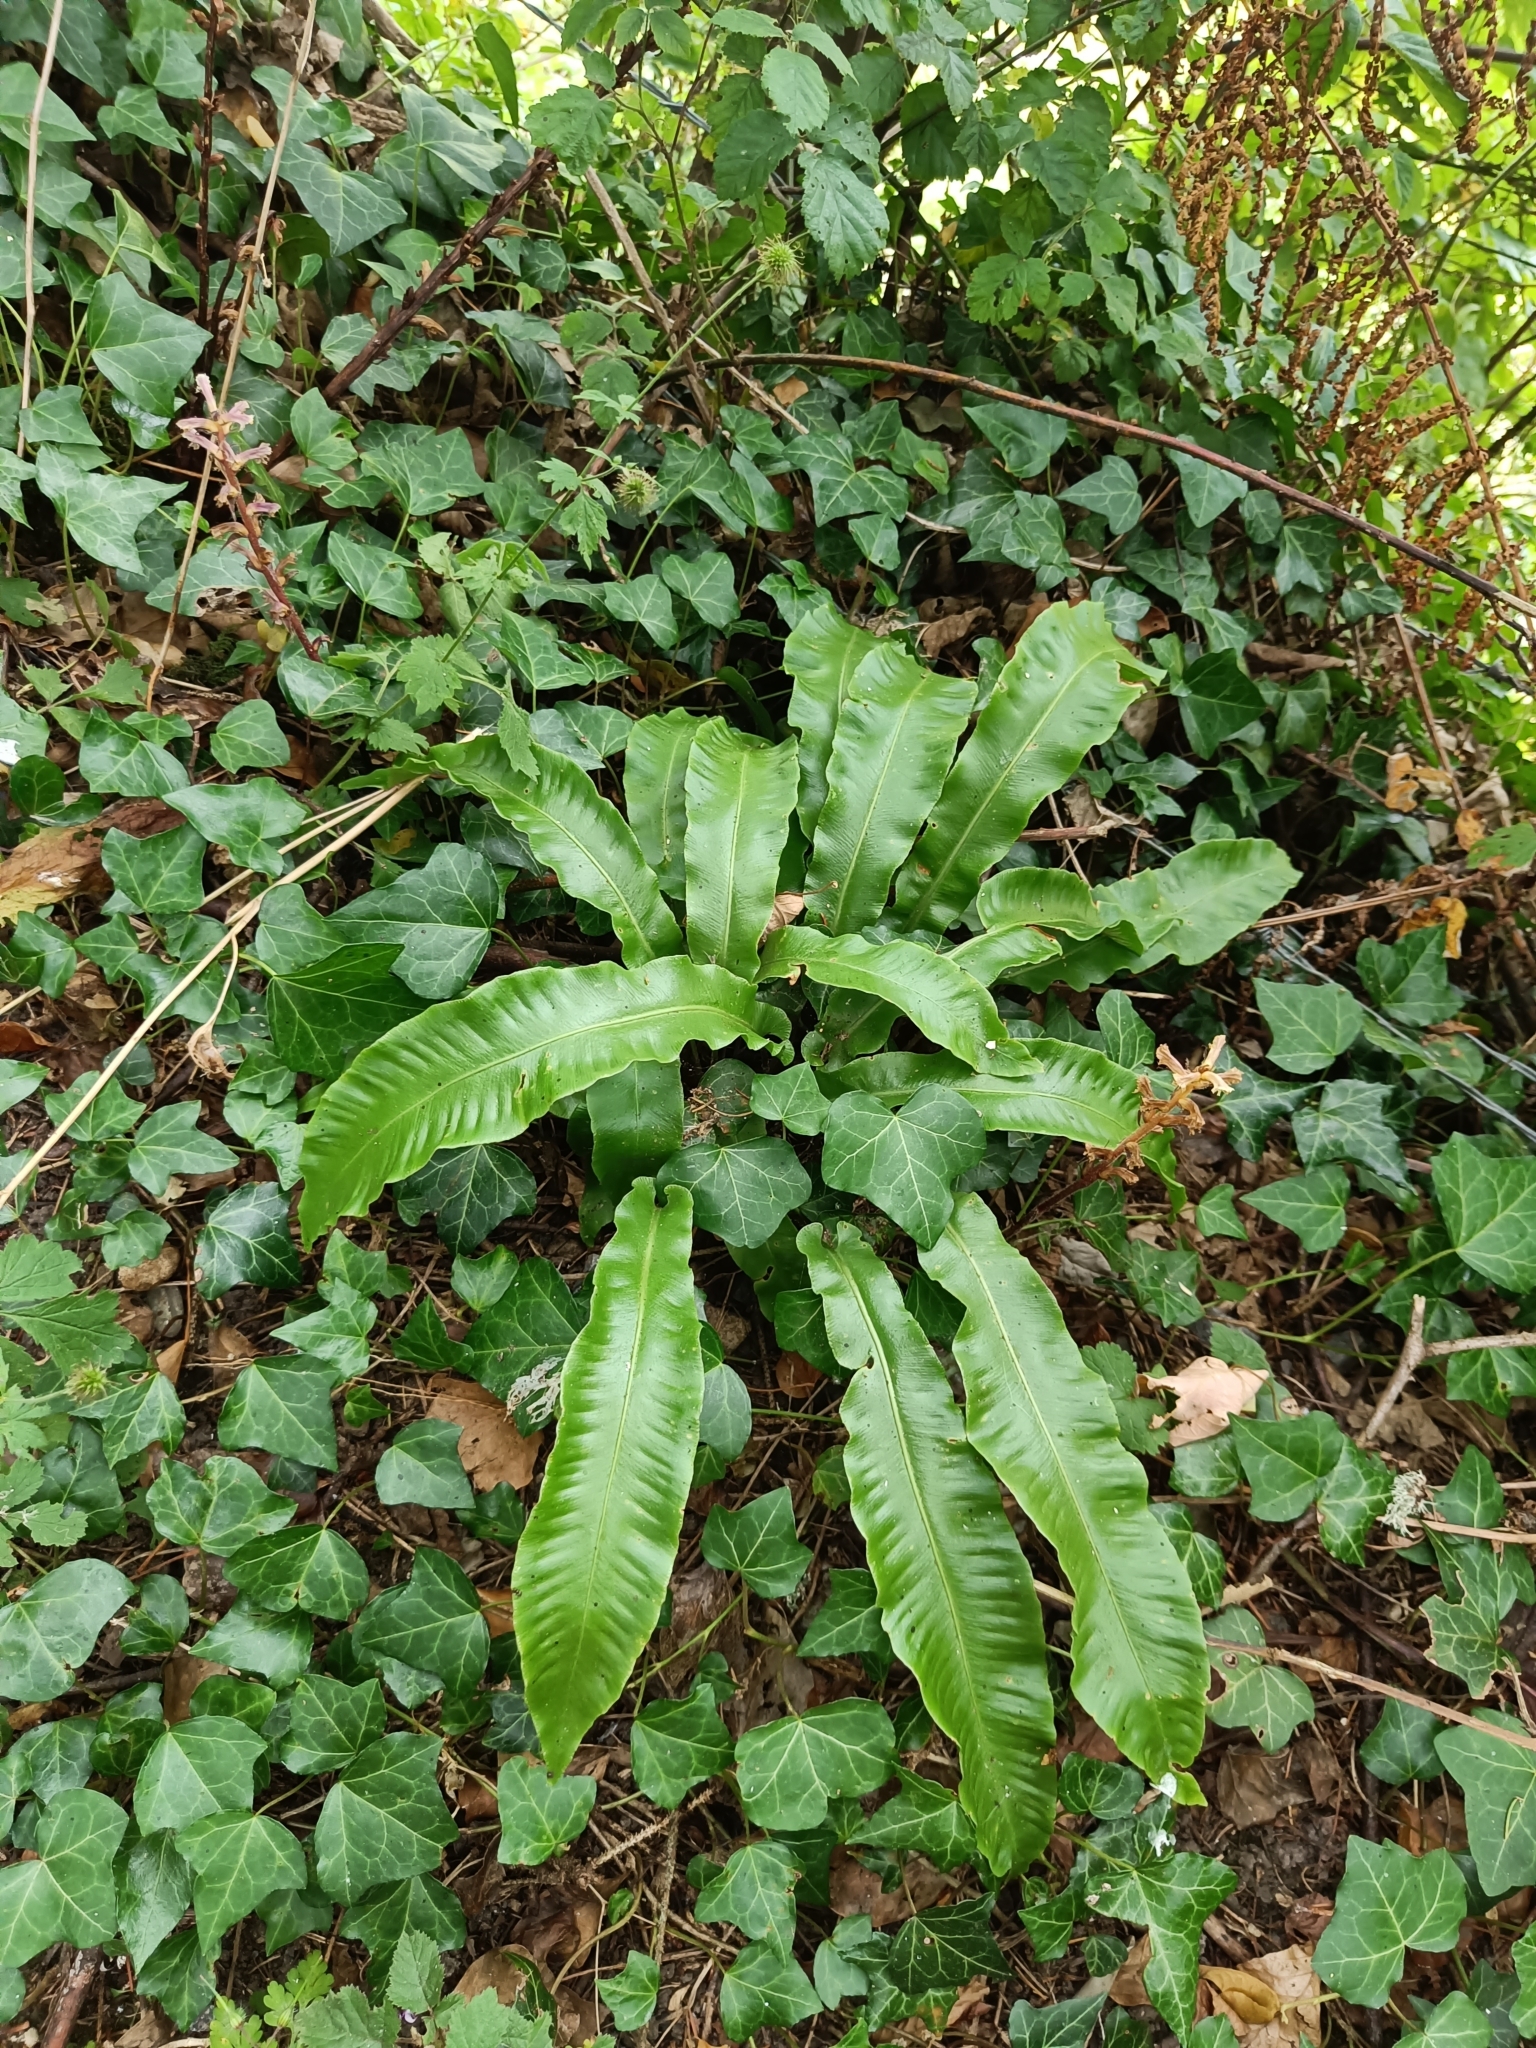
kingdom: Plantae
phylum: Tracheophyta
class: Polypodiopsida
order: Polypodiales
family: Aspleniaceae
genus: Asplenium
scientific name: Asplenium scolopendrium
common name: Hart's-tongue fern
